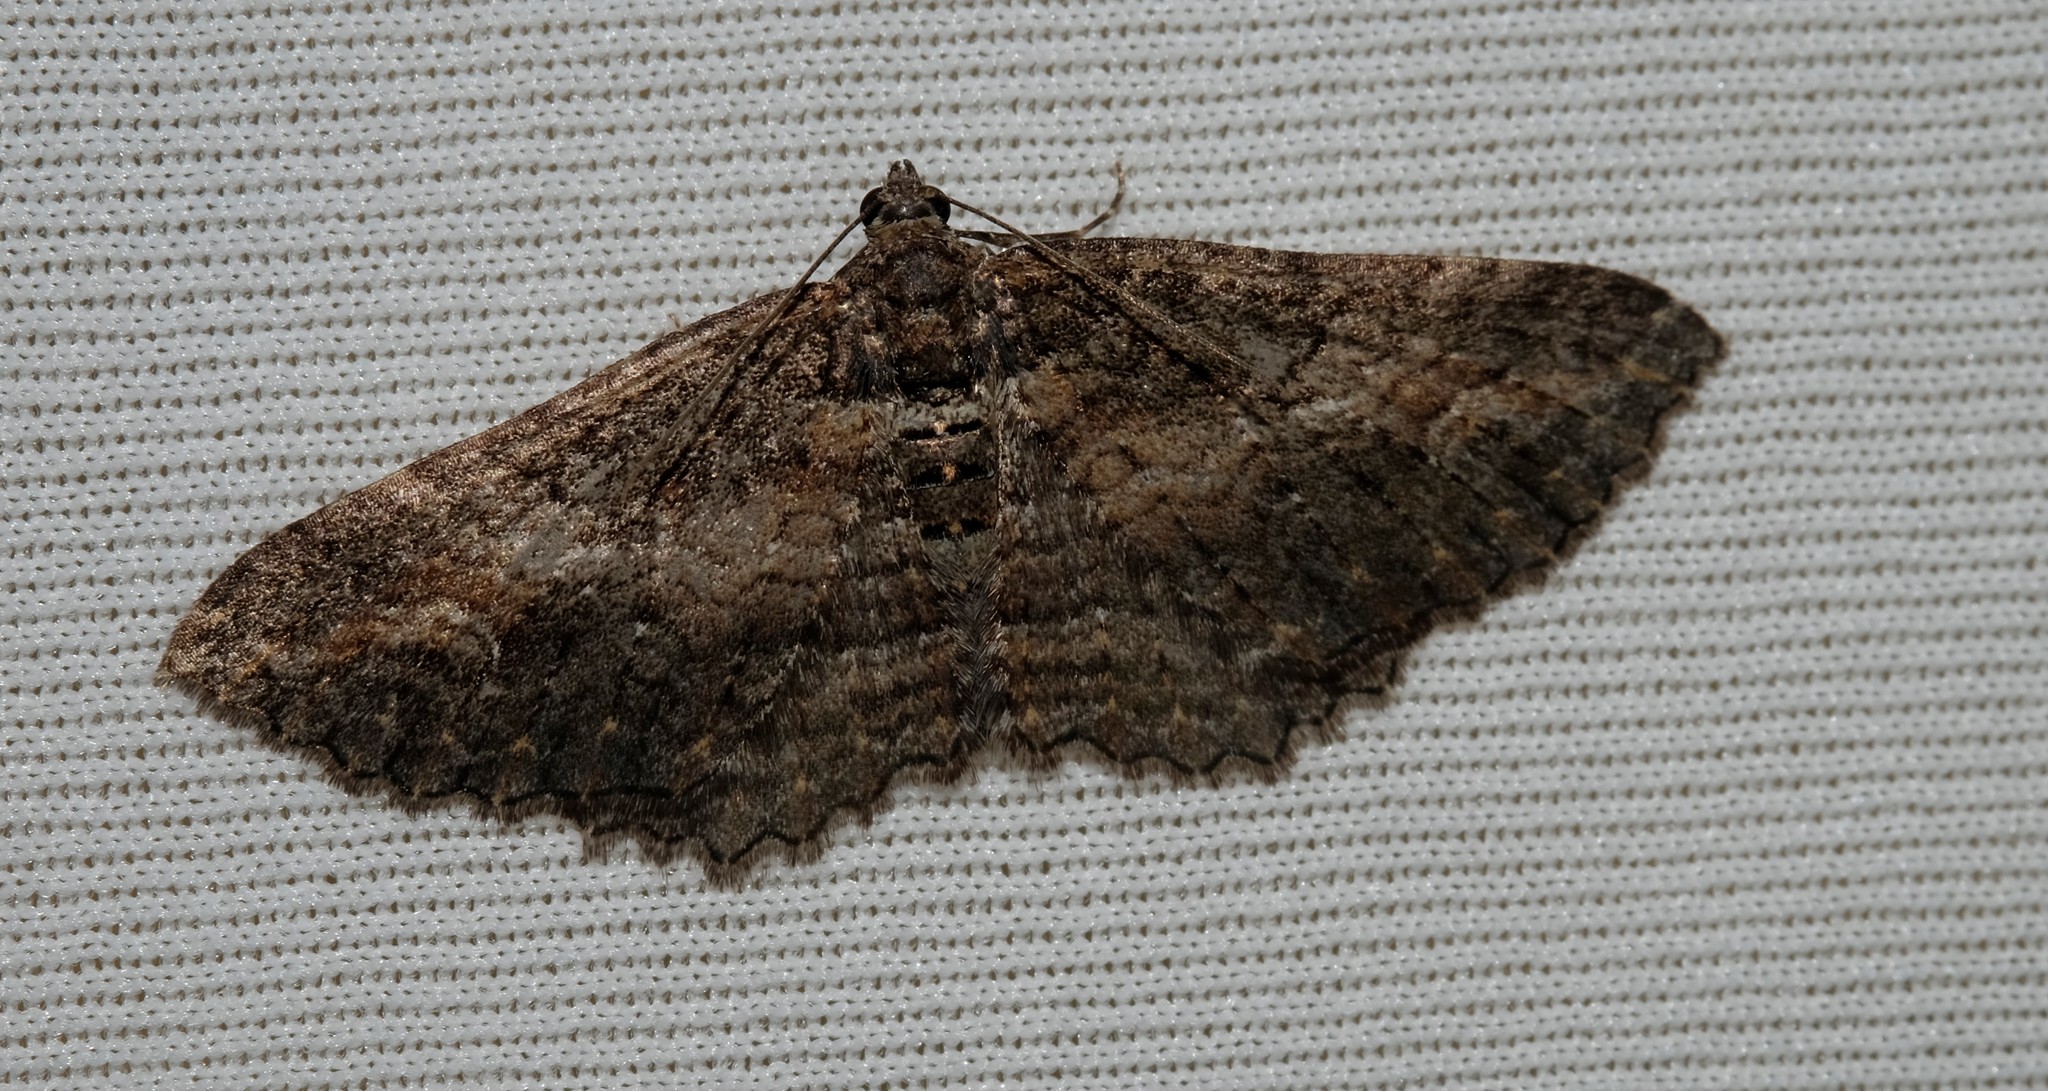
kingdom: Animalia
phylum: Arthropoda
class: Insecta
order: Lepidoptera
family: Geometridae
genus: Eupithecia
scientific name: Eupithecia Eucymatoge scotodes
